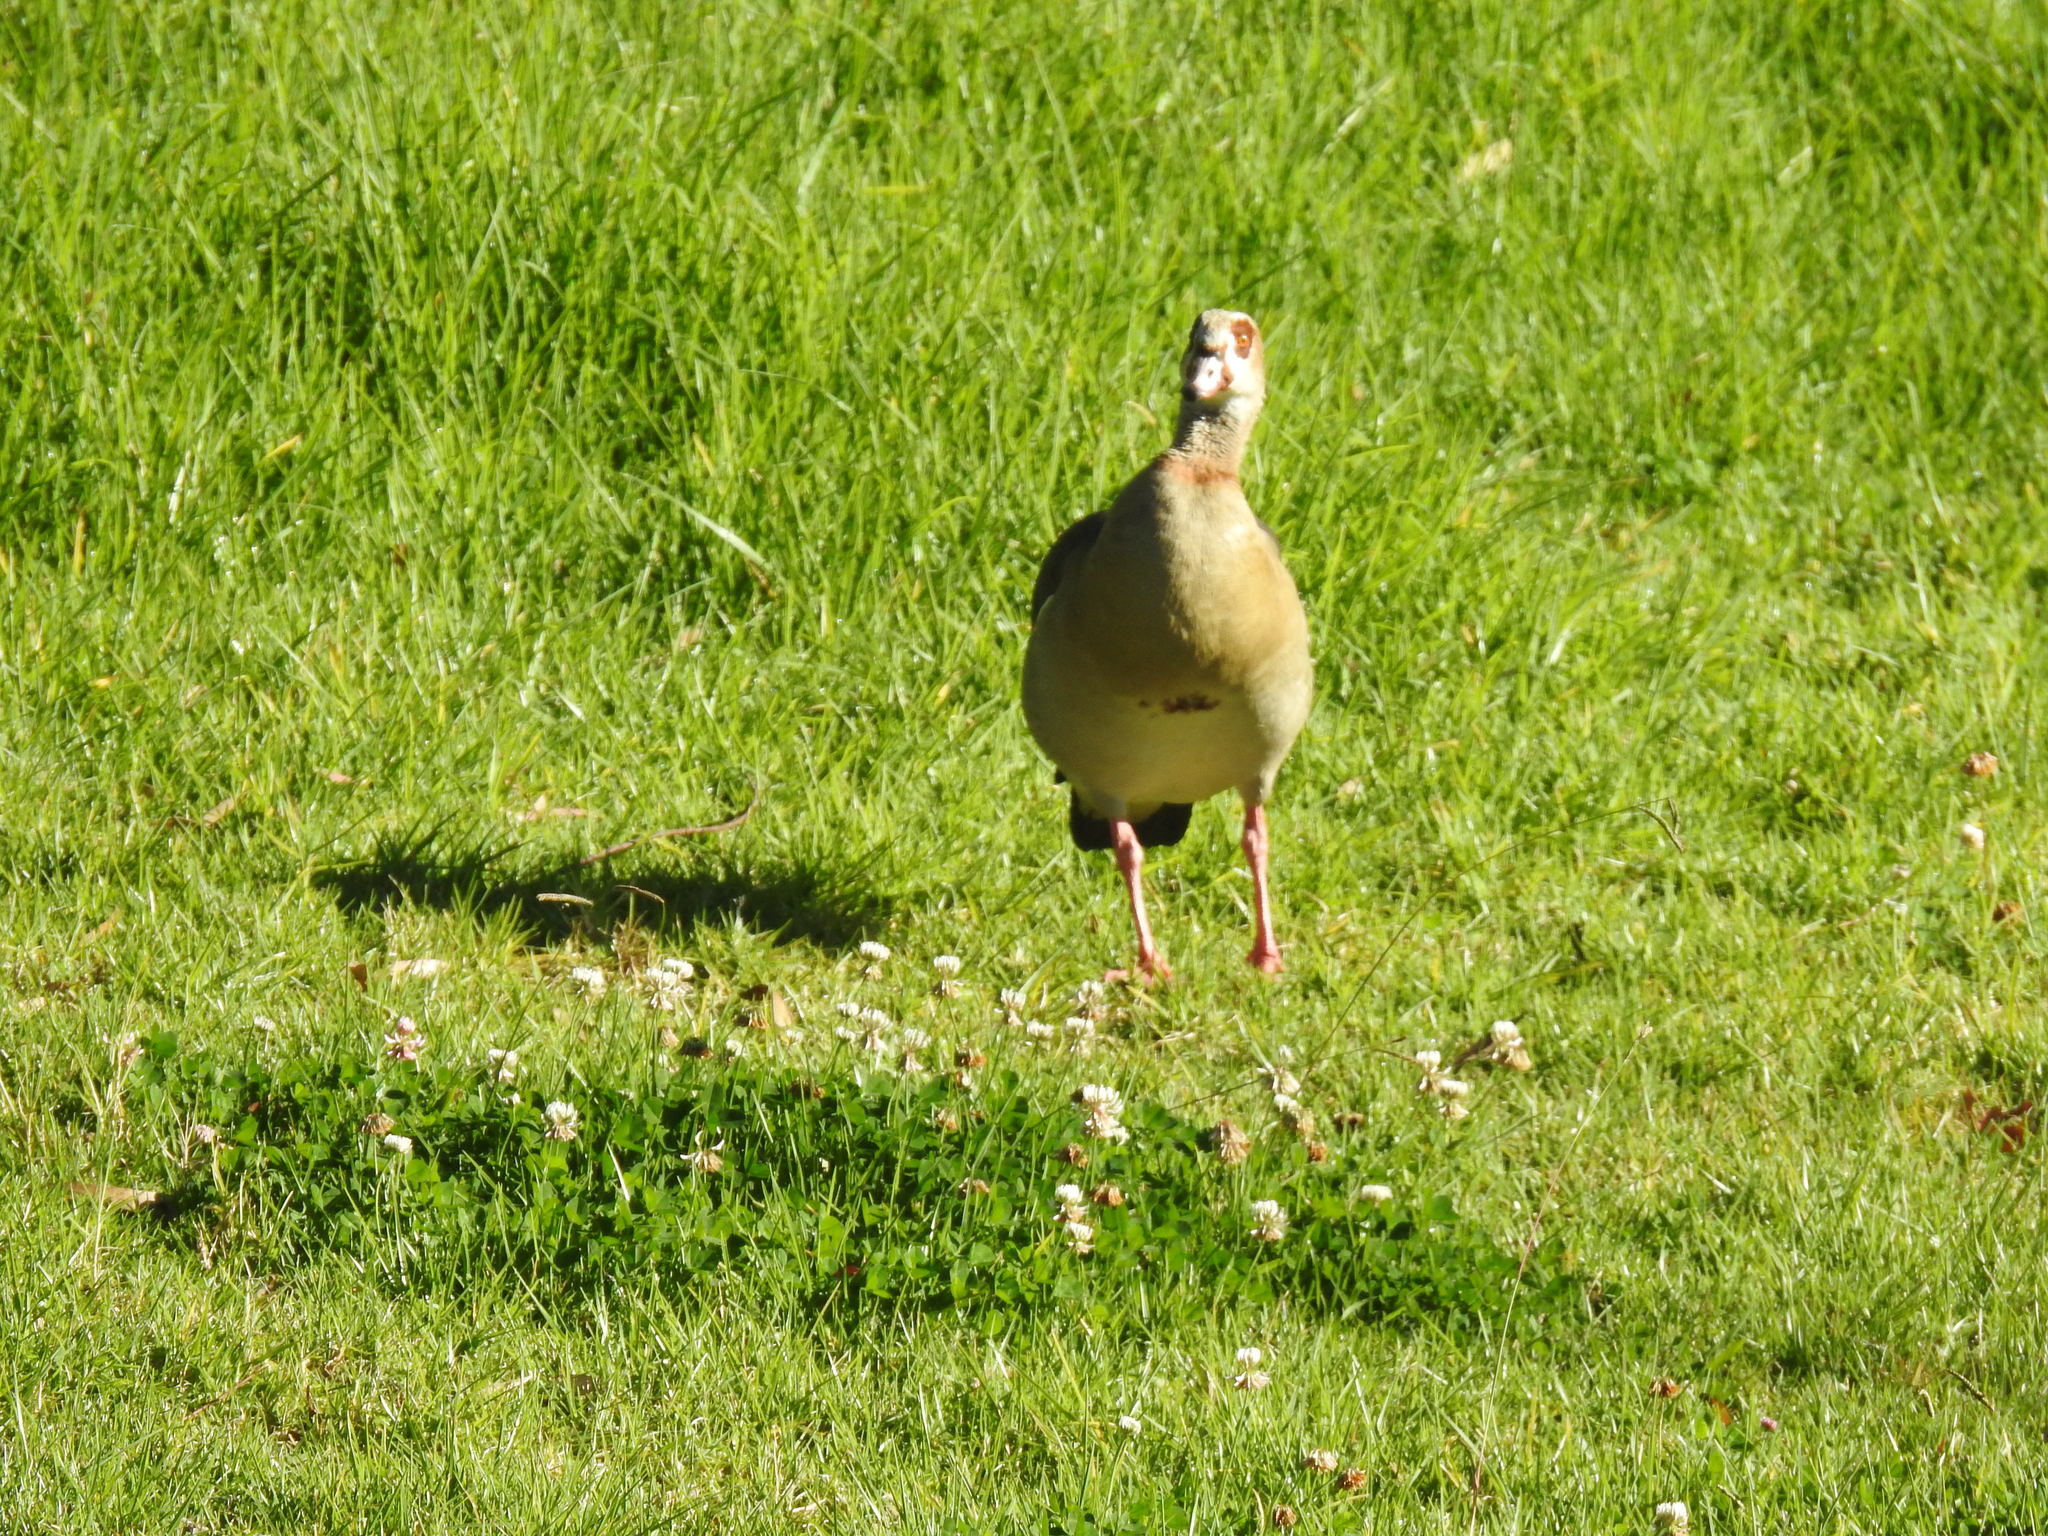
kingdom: Animalia
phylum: Chordata
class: Aves
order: Anseriformes
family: Anatidae
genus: Alopochen
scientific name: Alopochen aegyptiaca
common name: Egyptian goose
